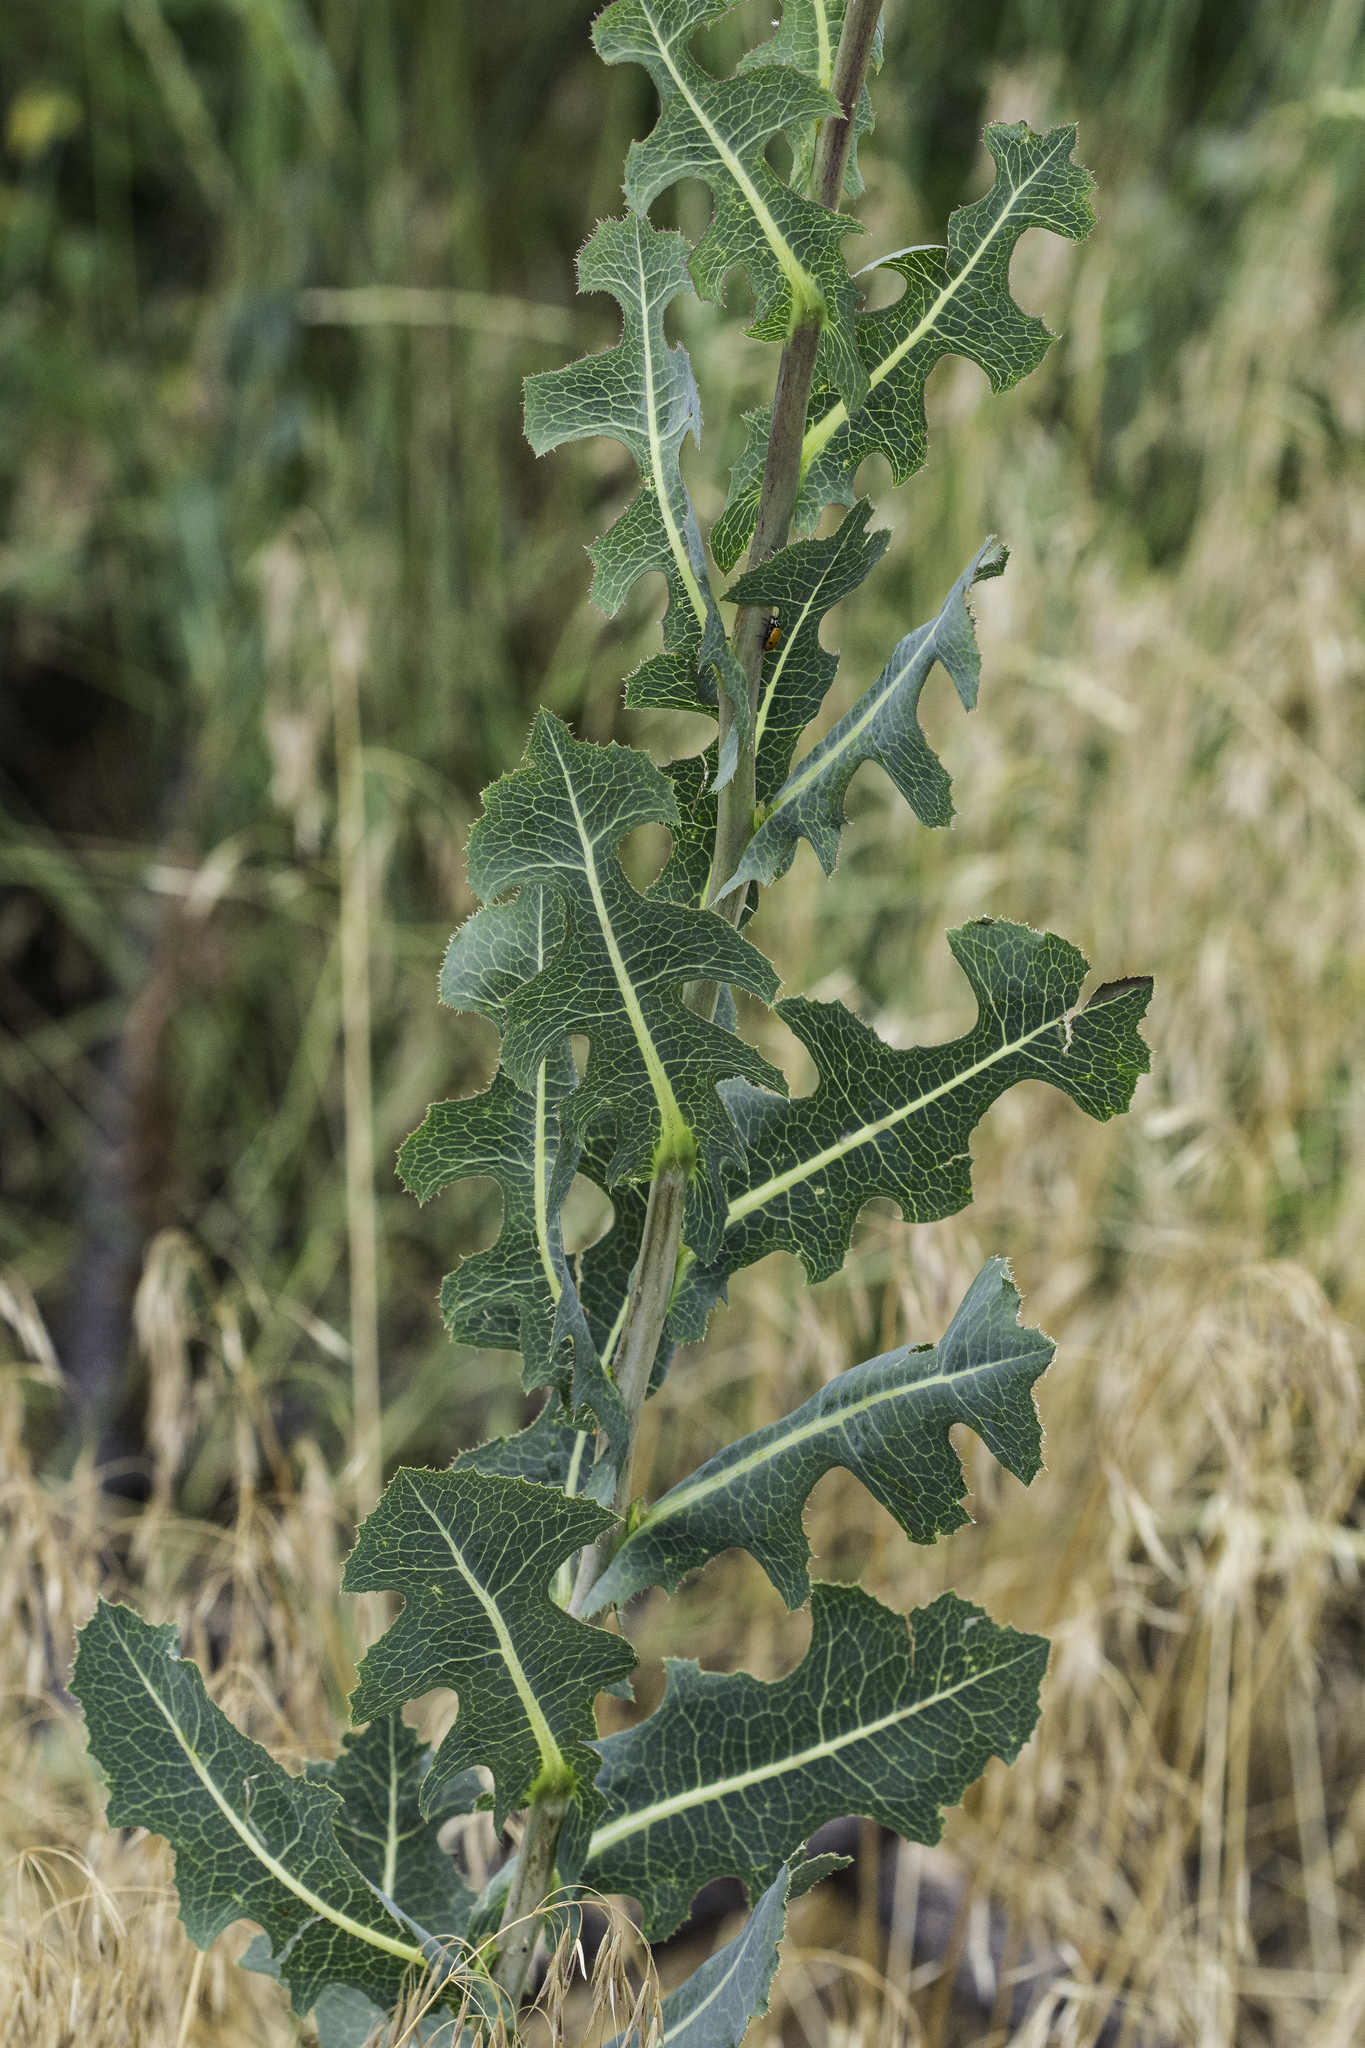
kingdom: Plantae
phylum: Tracheophyta
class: Magnoliopsida
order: Asterales
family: Asteraceae
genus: Lactuca
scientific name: Lactuca serriola
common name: Prickly lettuce
